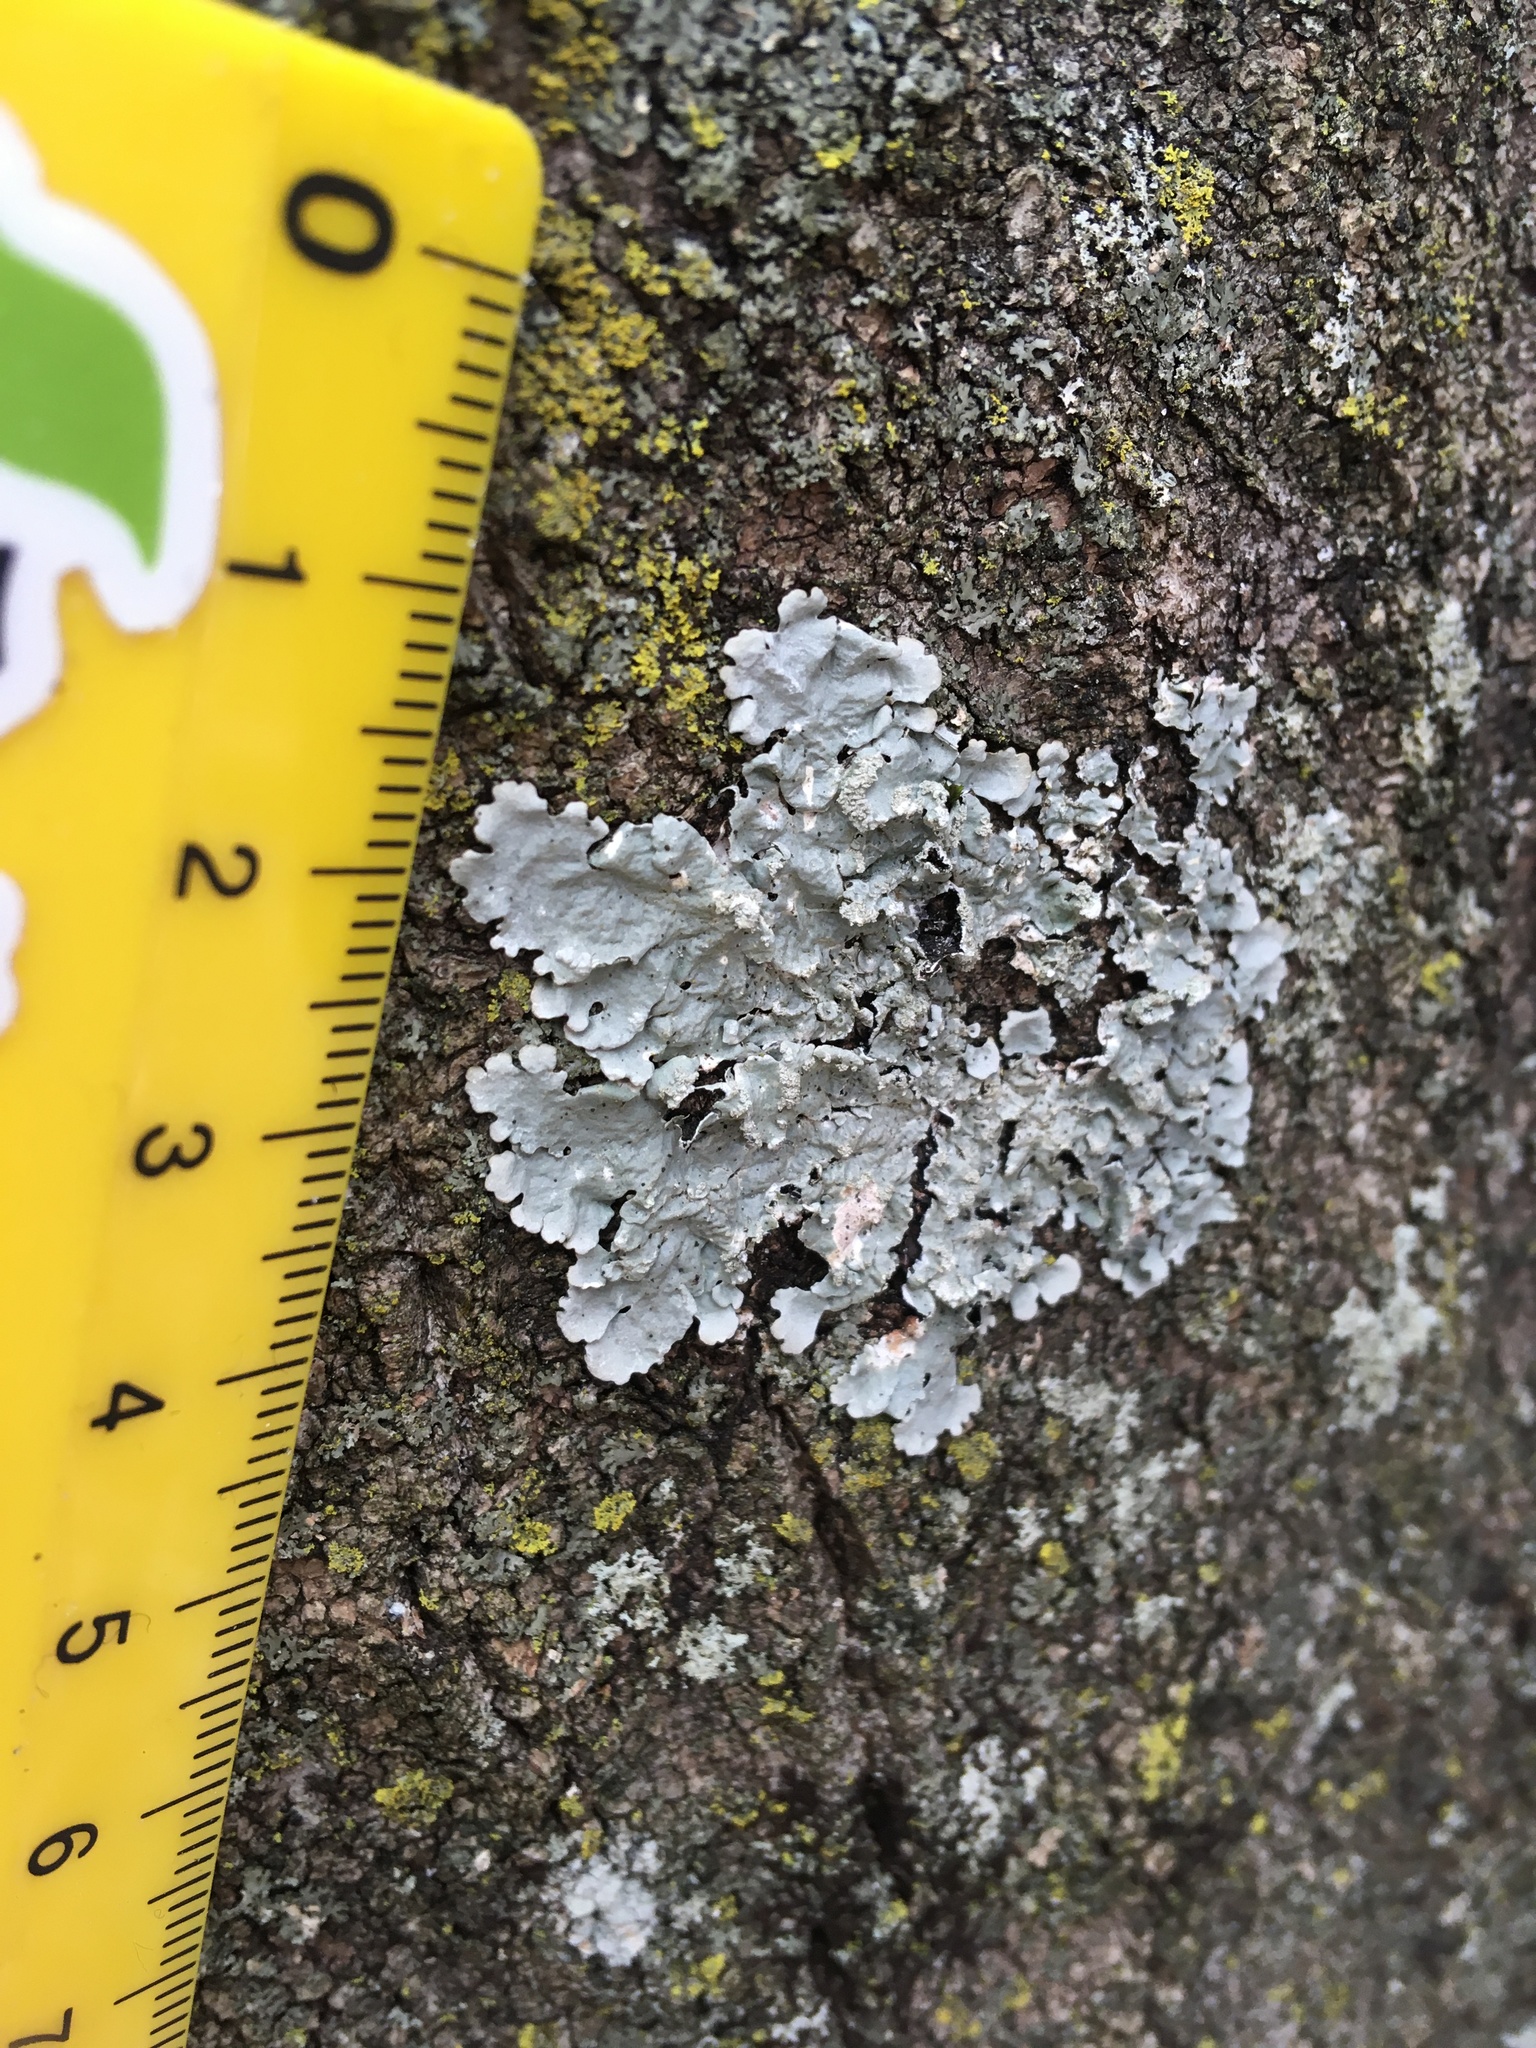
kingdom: Fungi
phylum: Ascomycota
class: Lecanoromycetes
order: Lecanorales
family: Parmeliaceae
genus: Myelochroa
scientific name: Myelochroa aurulenta
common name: Powdery axil-bristle lichen
